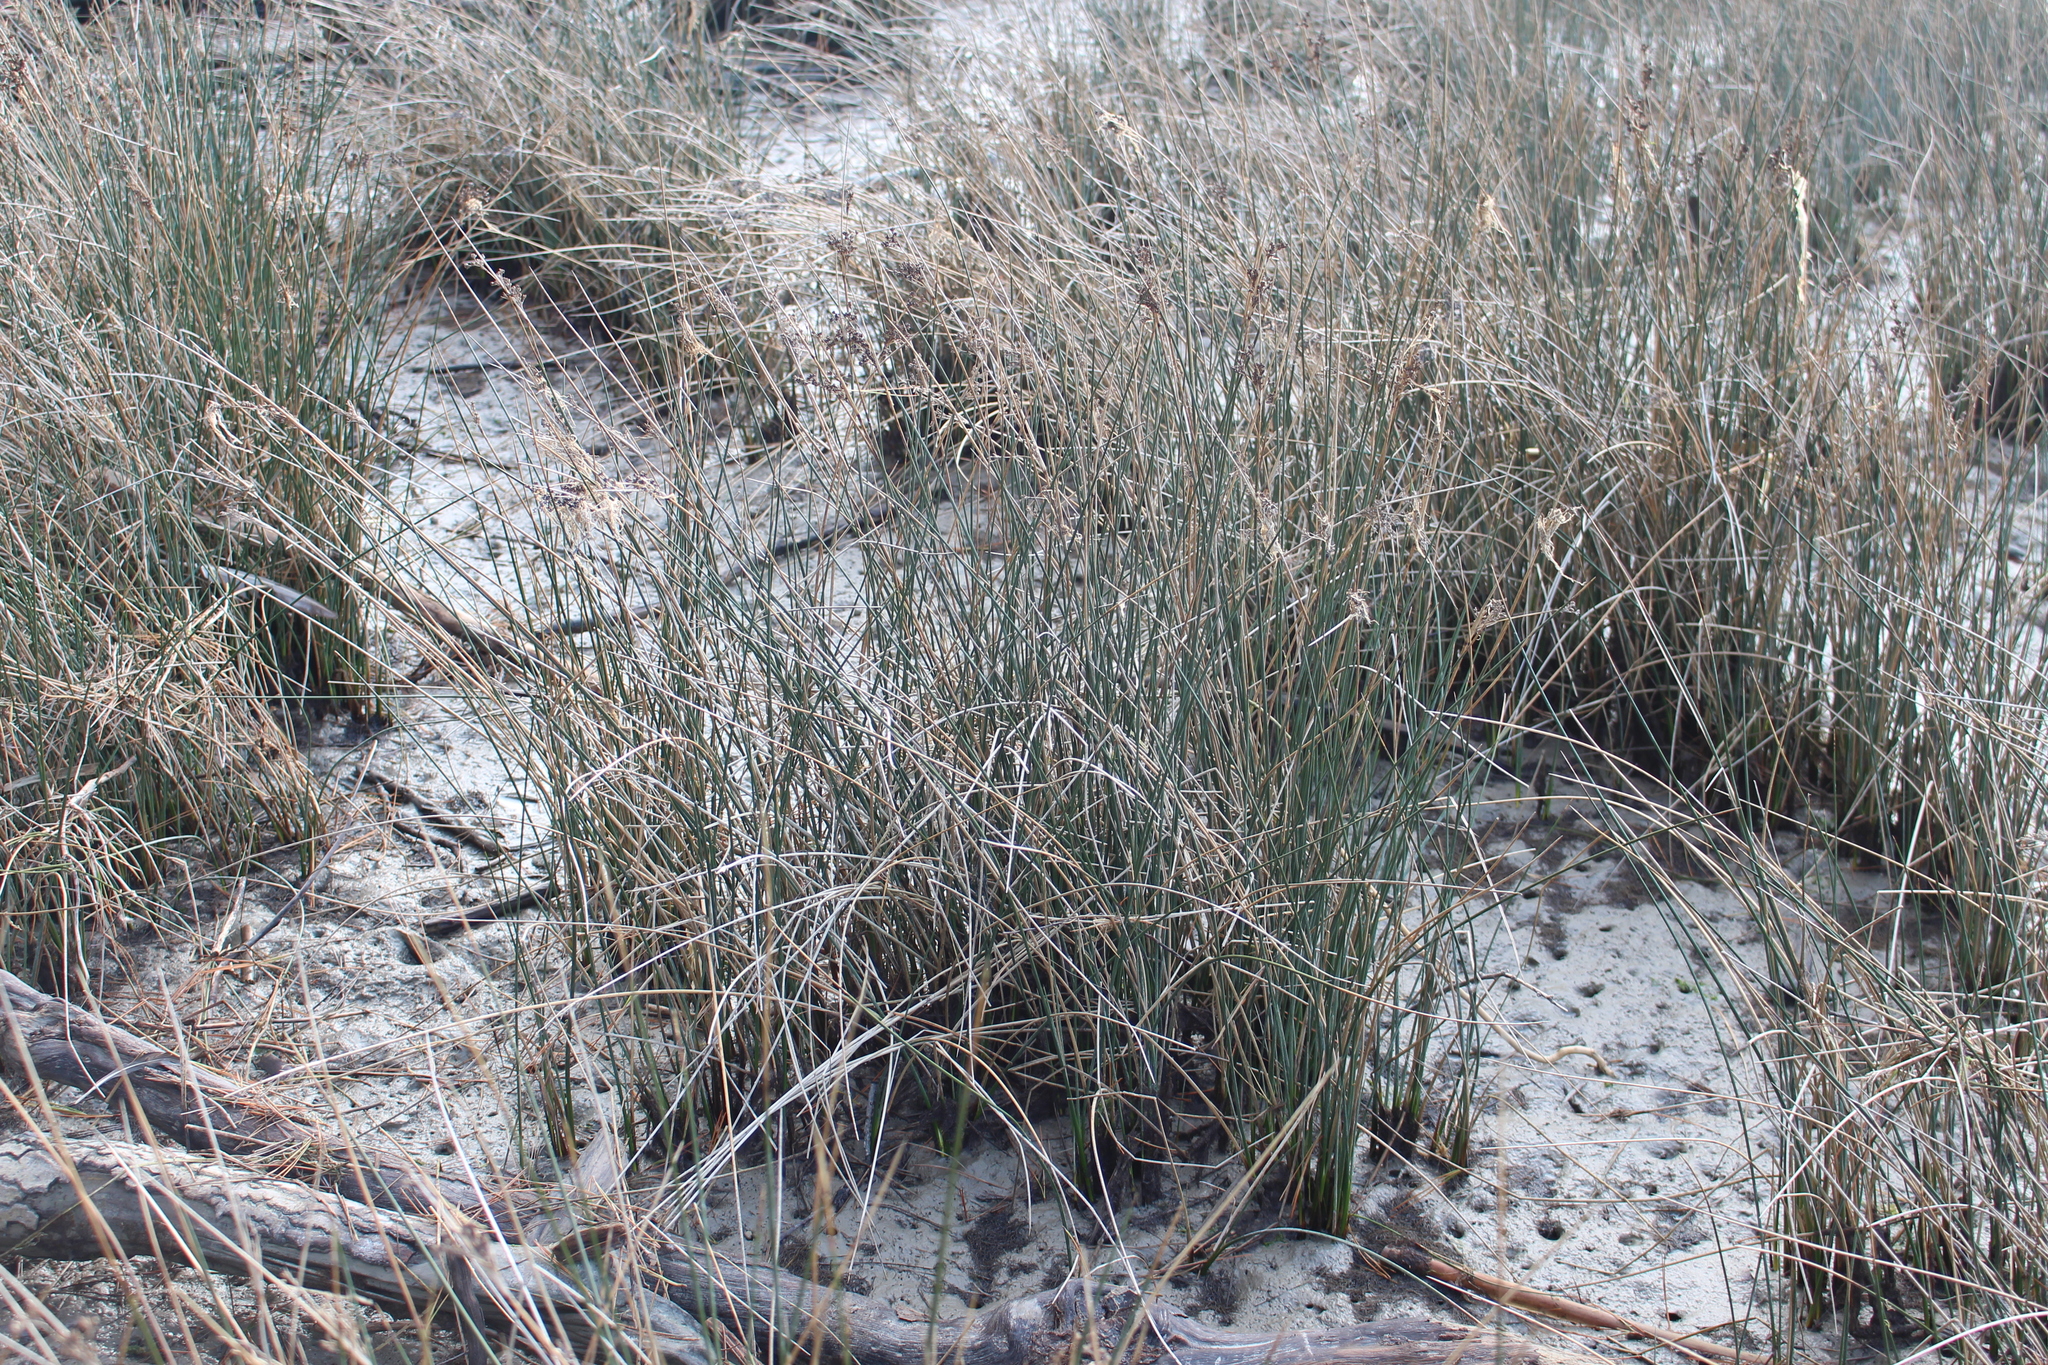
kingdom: Plantae
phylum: Tracheophyta
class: Liliopsida
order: Poales
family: Juncaceae
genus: Juncus
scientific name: Juncus kraussii
